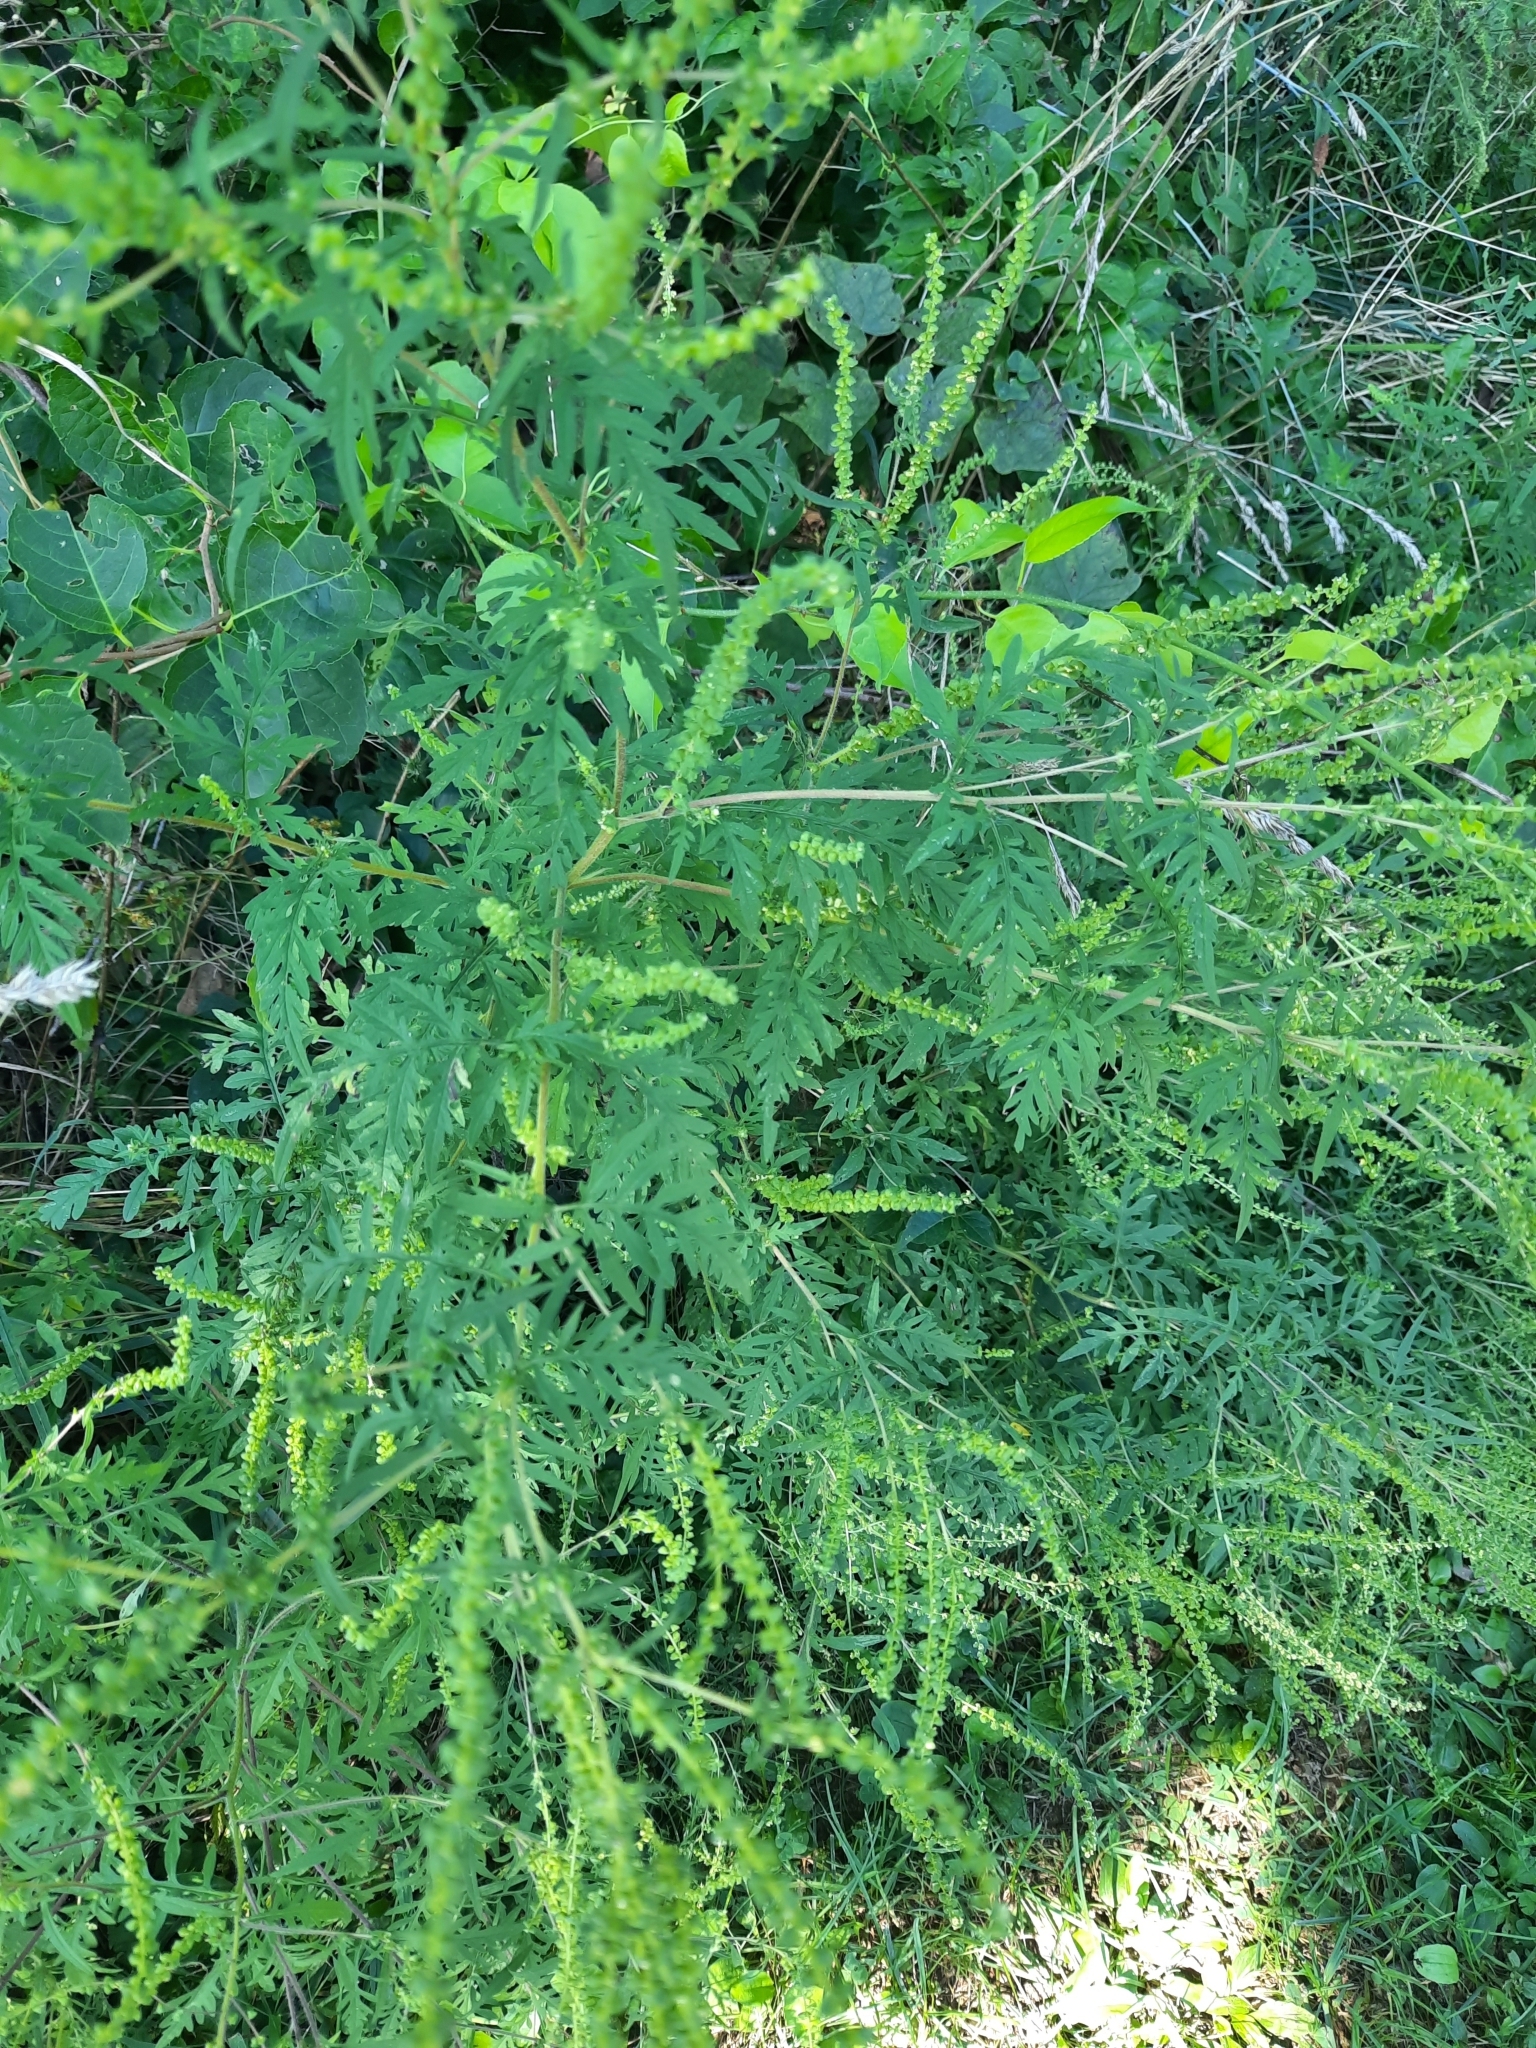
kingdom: Plantae
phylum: Tracheophyta
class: Magnoliopsida
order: Asterales
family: Asteraceae
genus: Ambrosia
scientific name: Ambrosia artemisiifolia
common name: Annual ragweed
